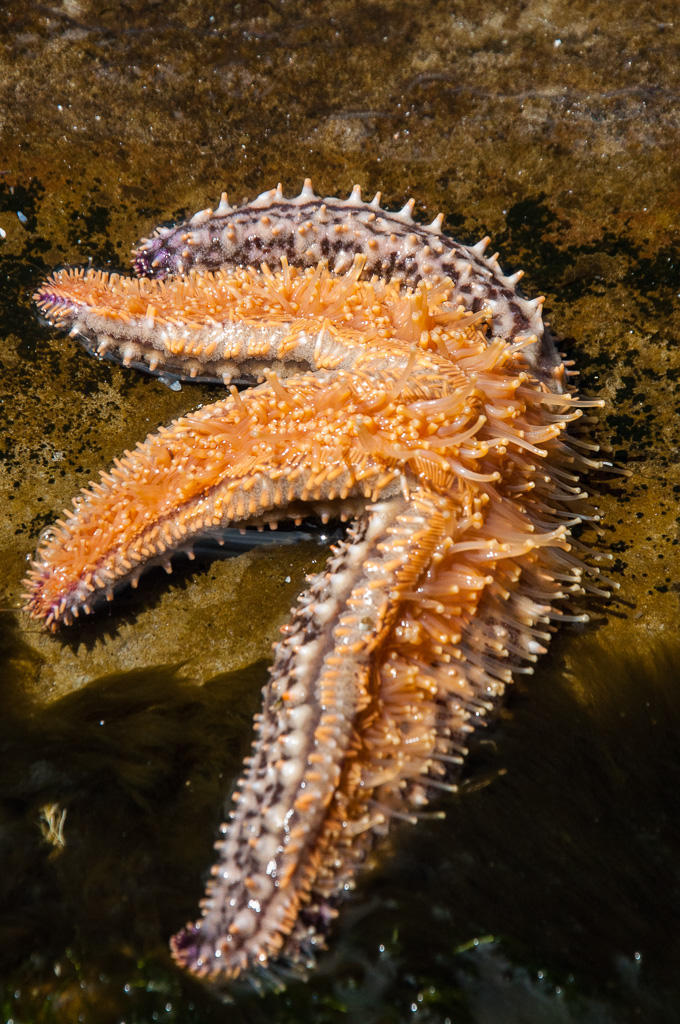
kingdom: Animalia
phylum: Echinodermata
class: Asteroidea
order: Forcipulatida
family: Asteriidae
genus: Marthasterias
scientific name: Marthasterias africana
